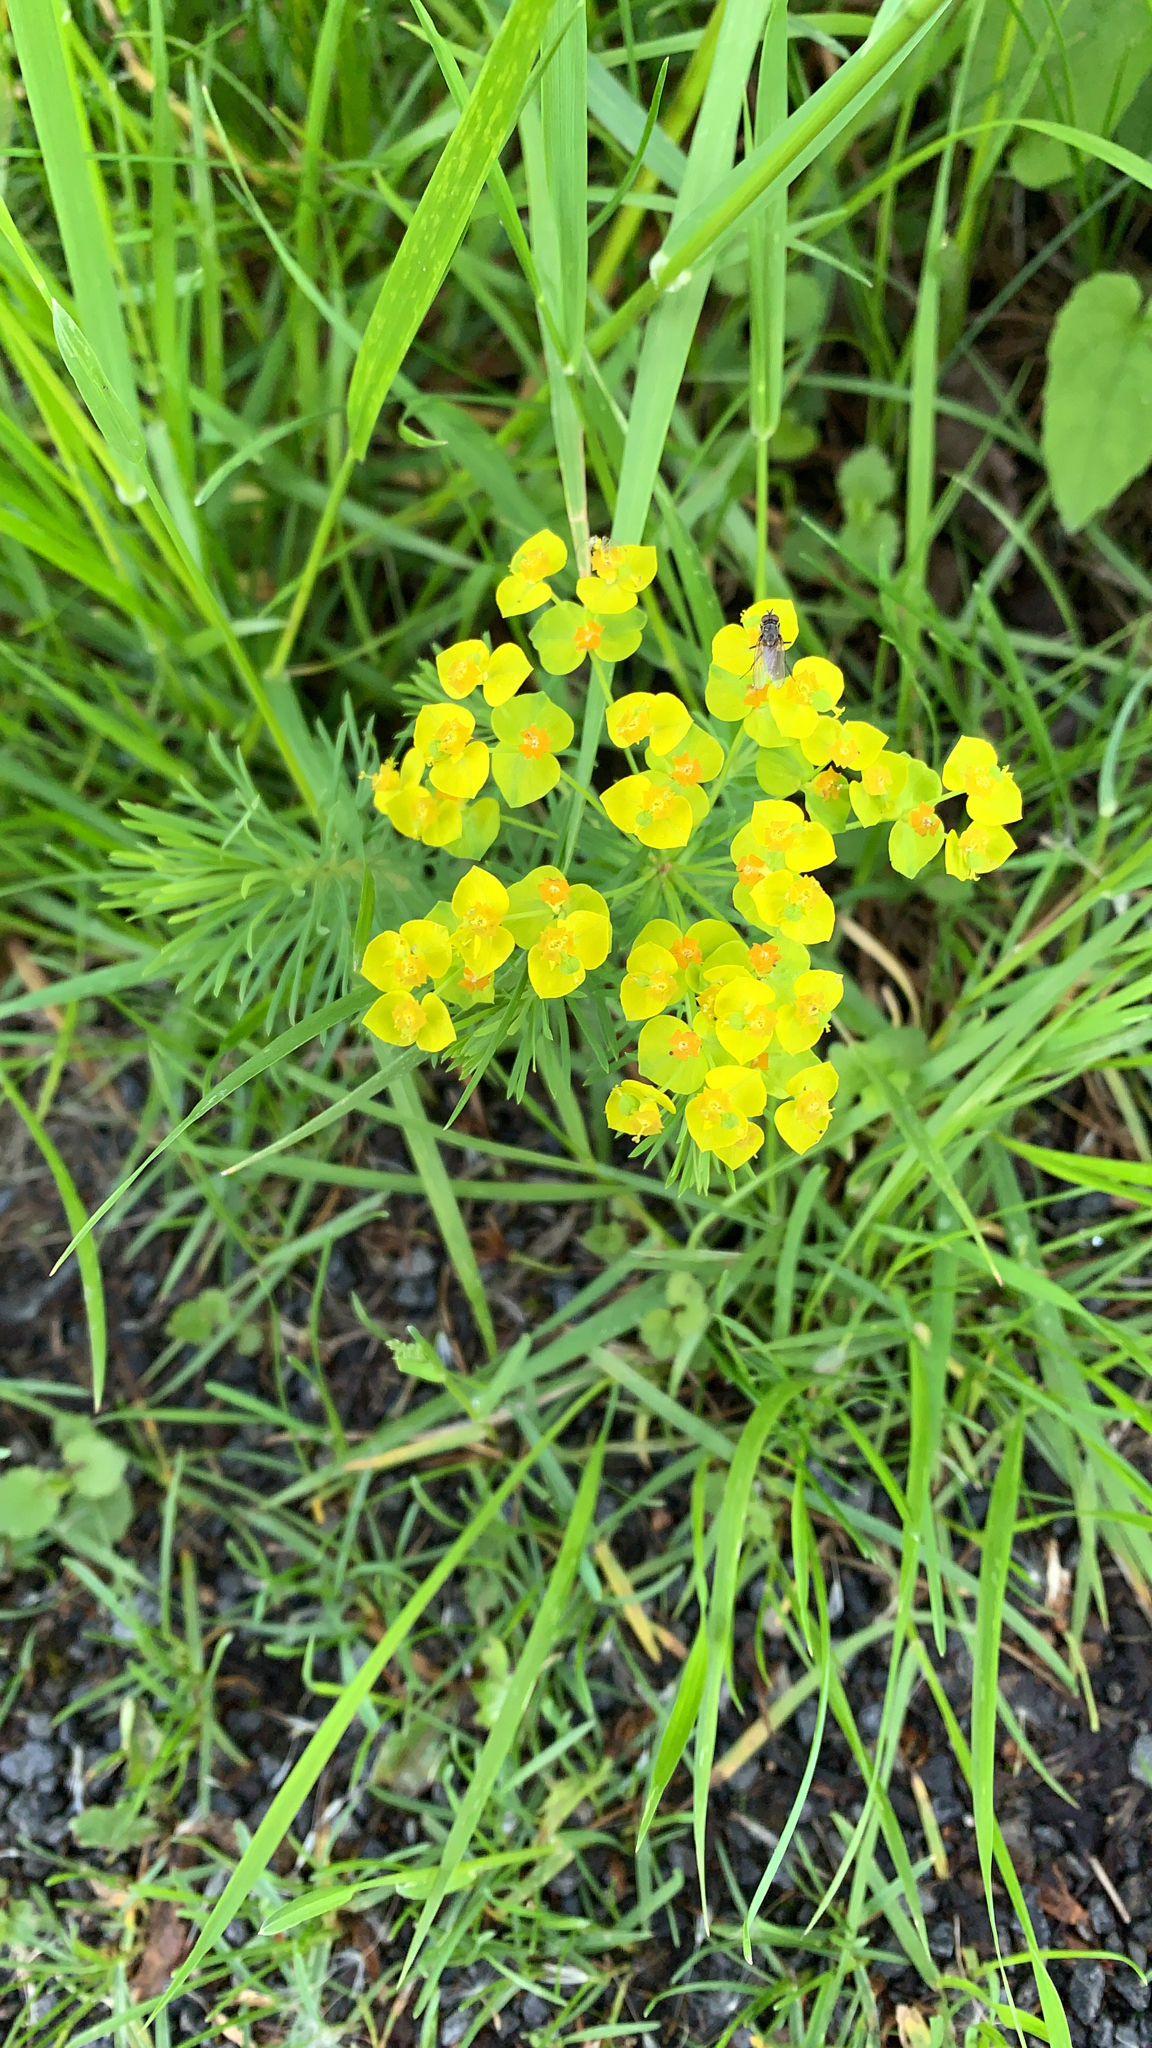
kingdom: Plantae
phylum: Tracheophyta
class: Magnoliopsida
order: Malpighiales
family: Euphorbiaceae
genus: Euphorbia
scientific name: Euphorbia cyparissias
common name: Cypress spurge
